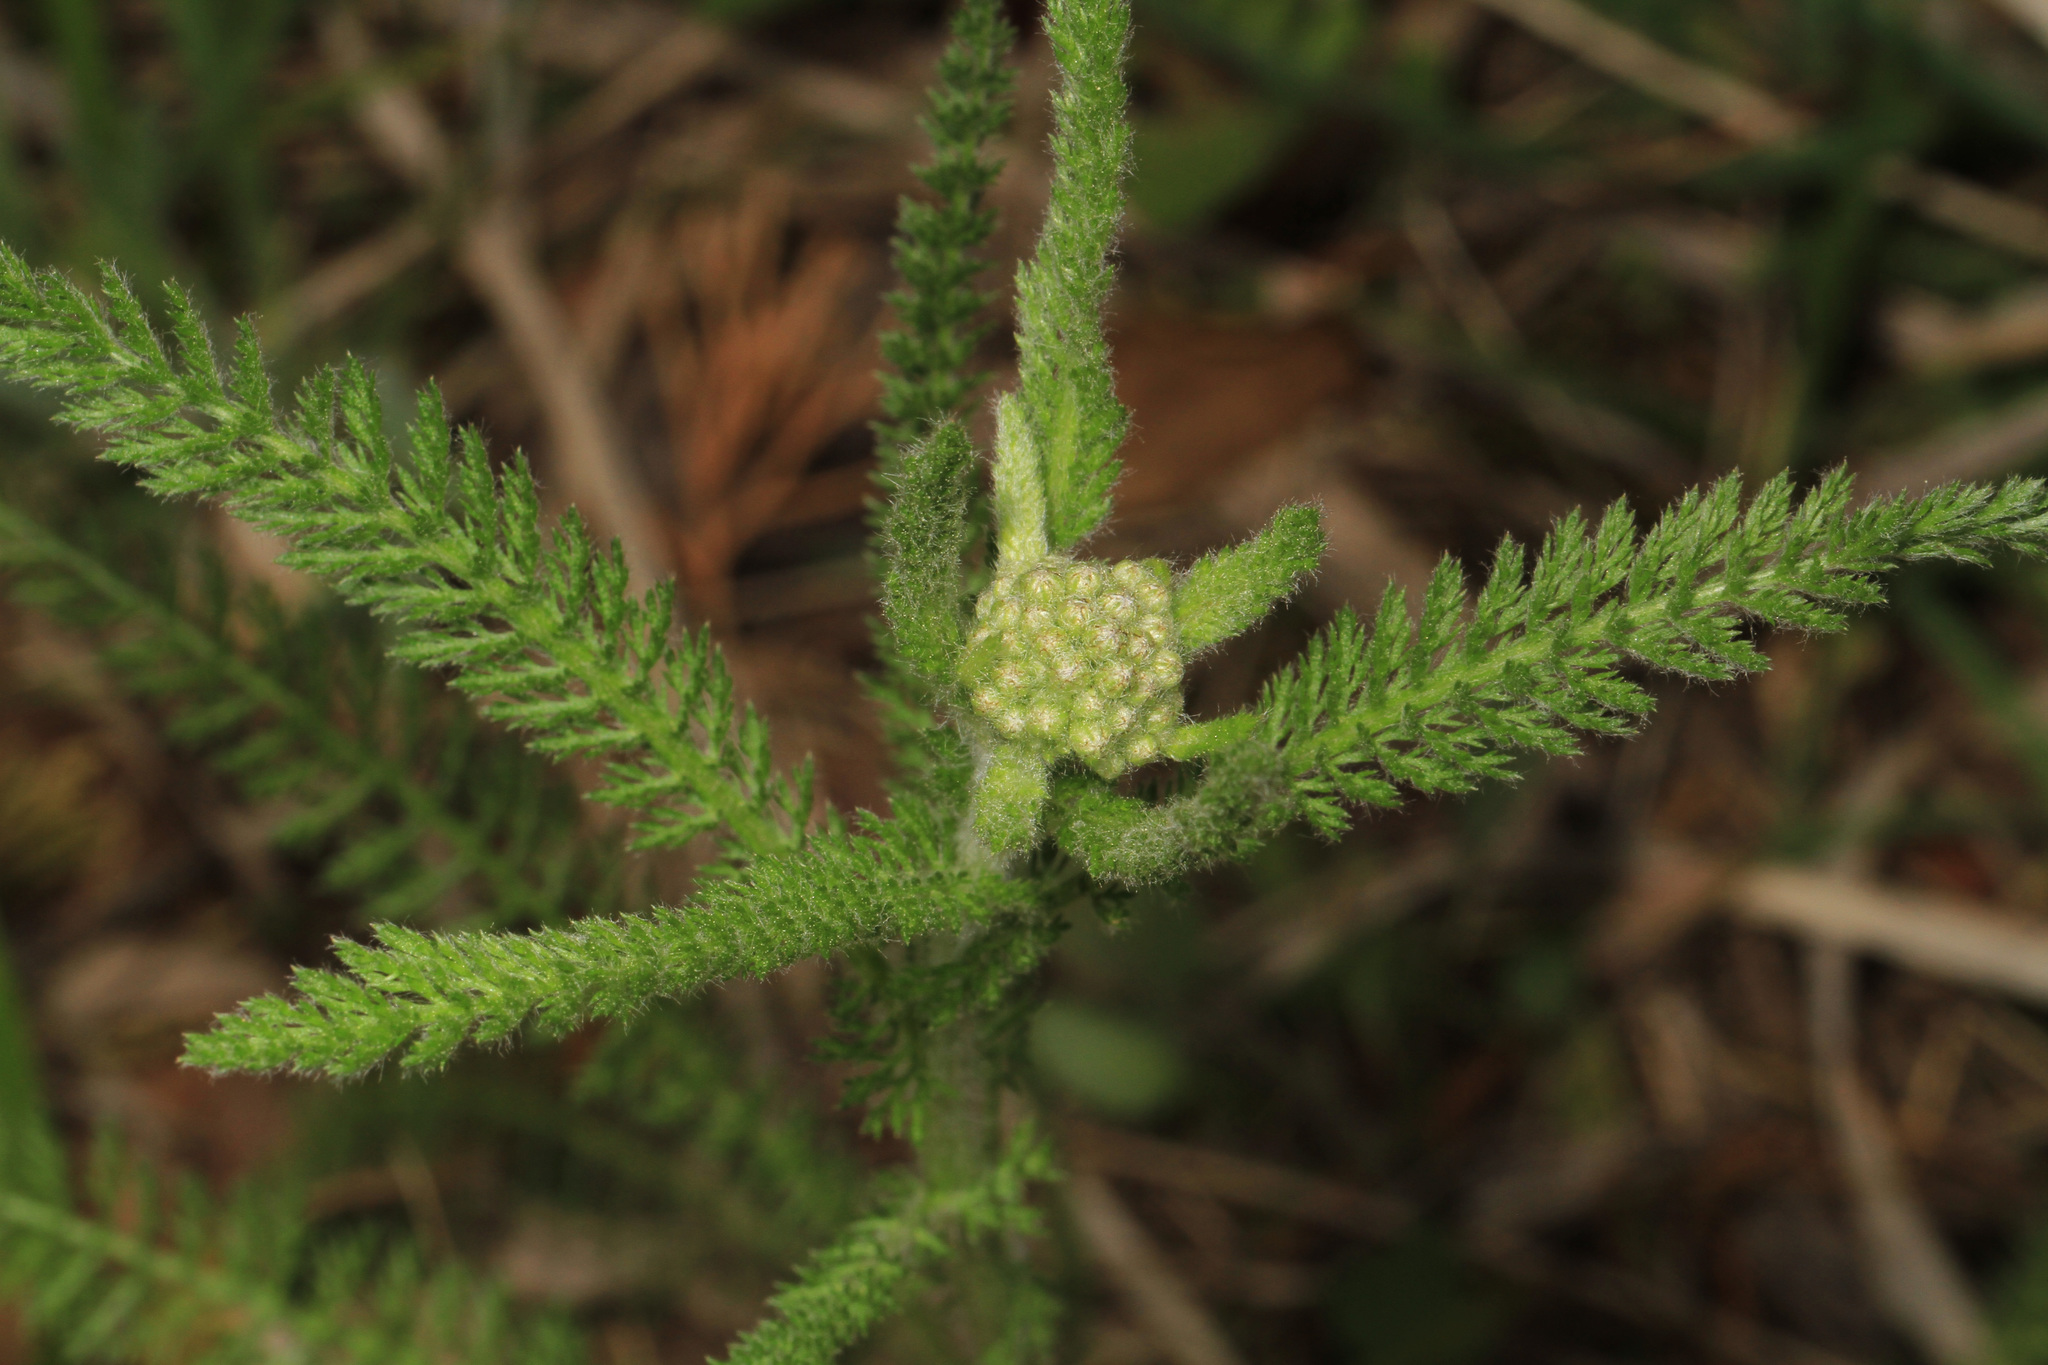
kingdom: Plantae
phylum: Tracheophyta
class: Magnoliopsida
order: Asterales
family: Asteraceae
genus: Achillea
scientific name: Achillea millefolium
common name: Yarrow
